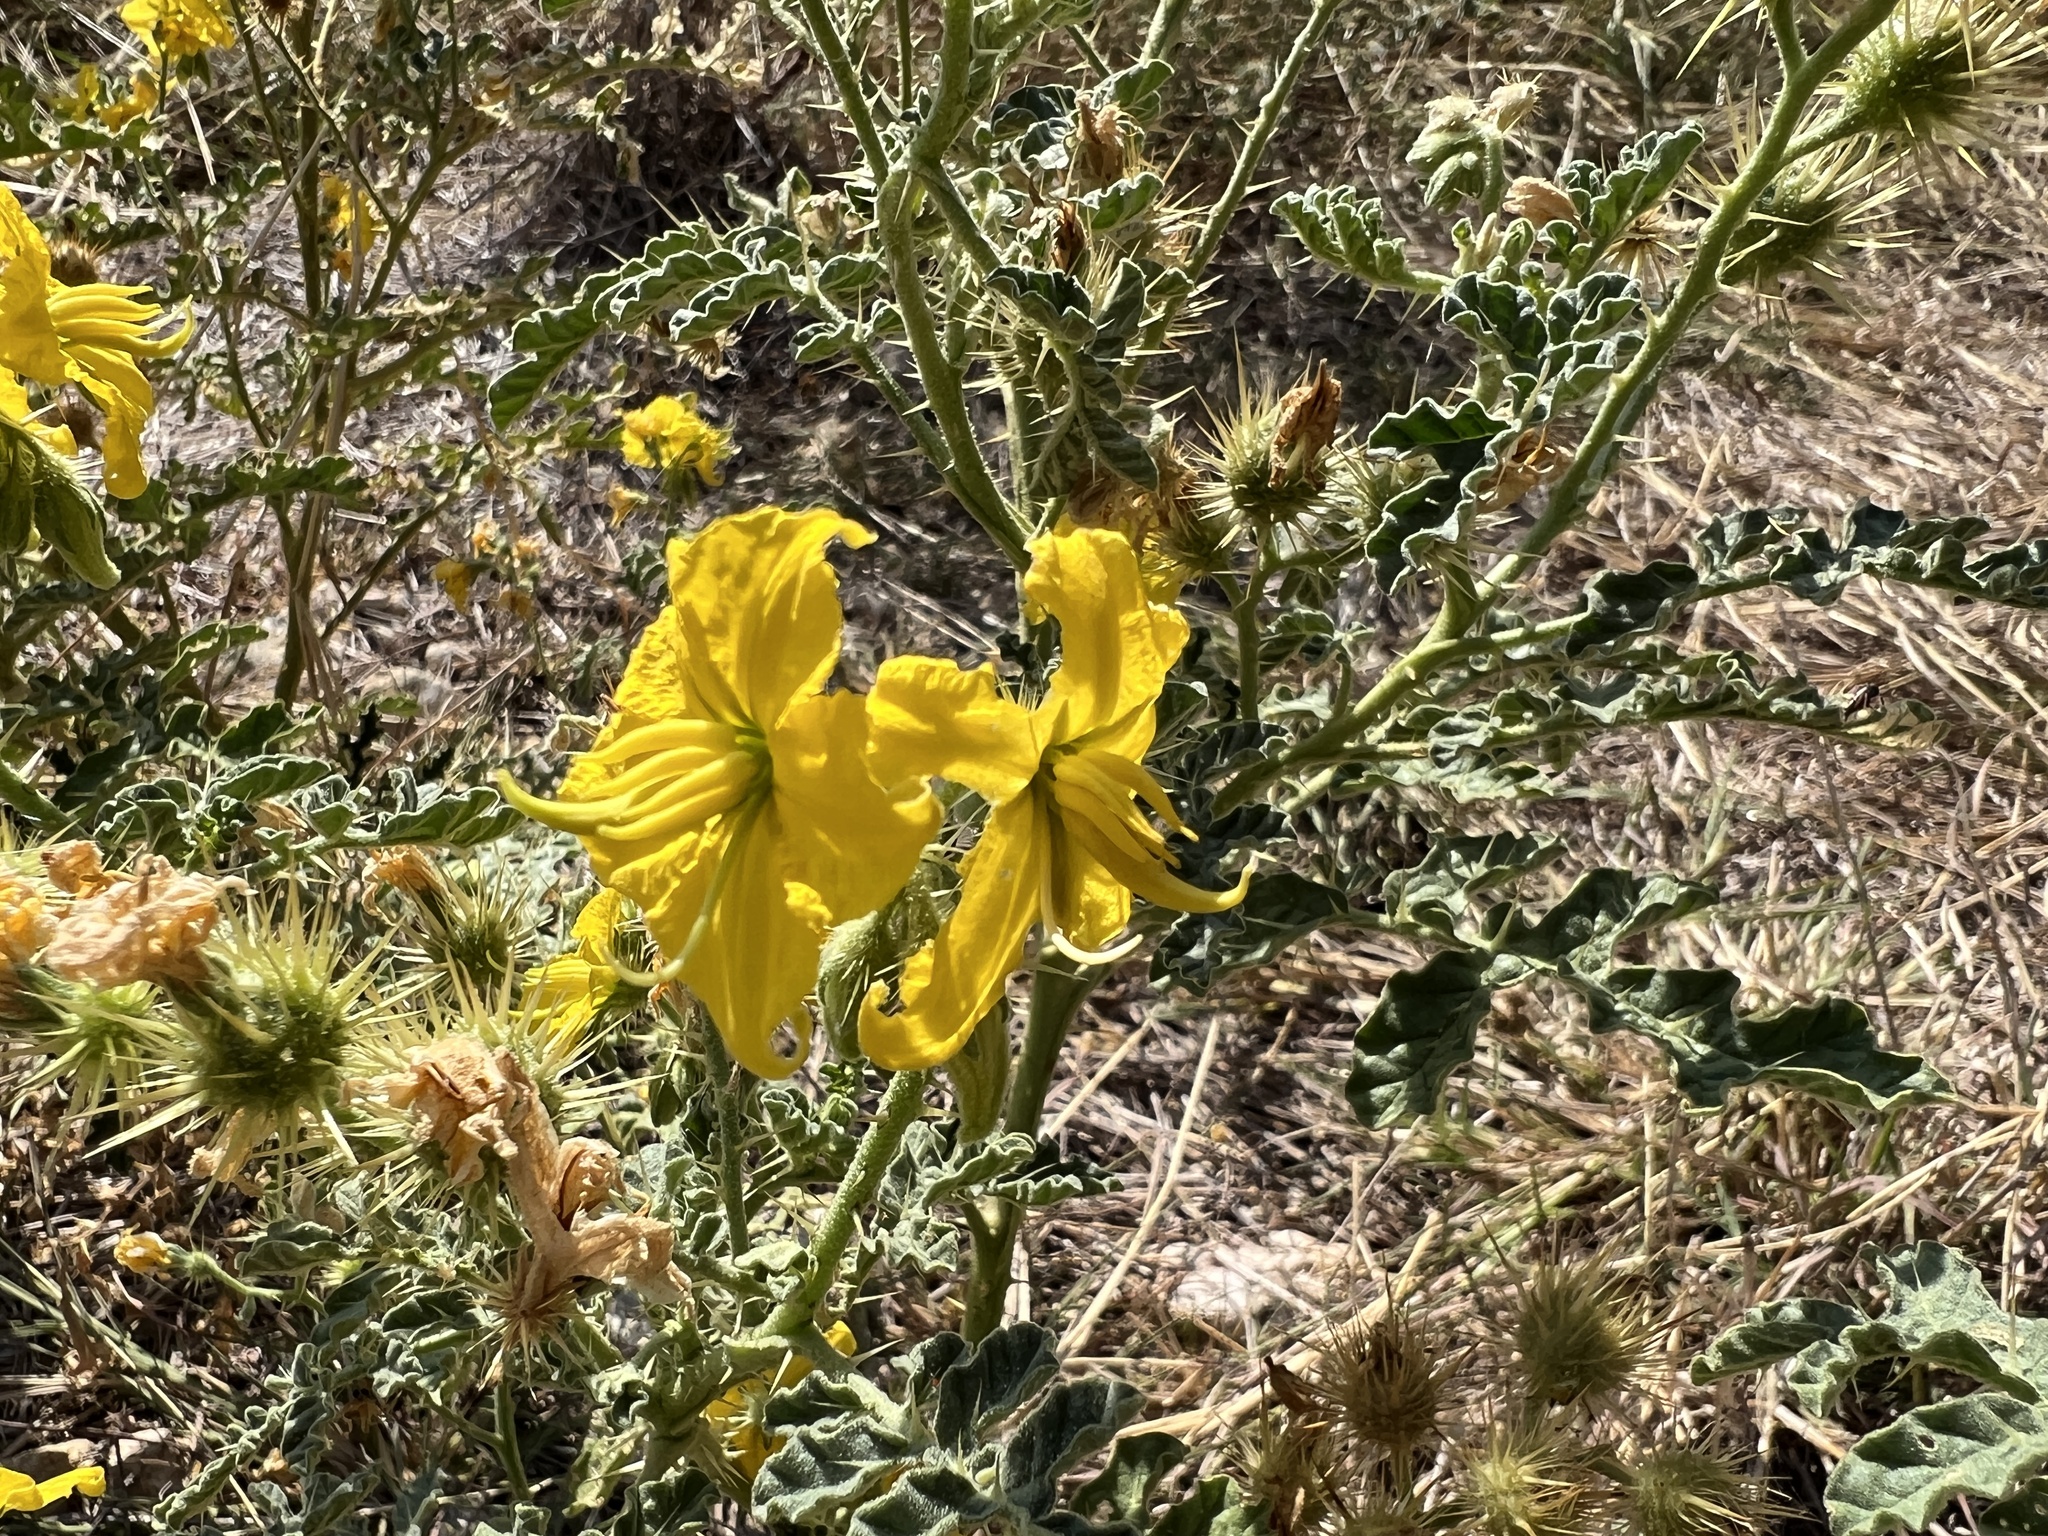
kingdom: Plantae
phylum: Tracheophyta
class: Magnoliopsida
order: Solanales
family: Solanaceae
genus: Solanum
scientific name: Solanum angustifolium
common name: Buffalobur nightshade
